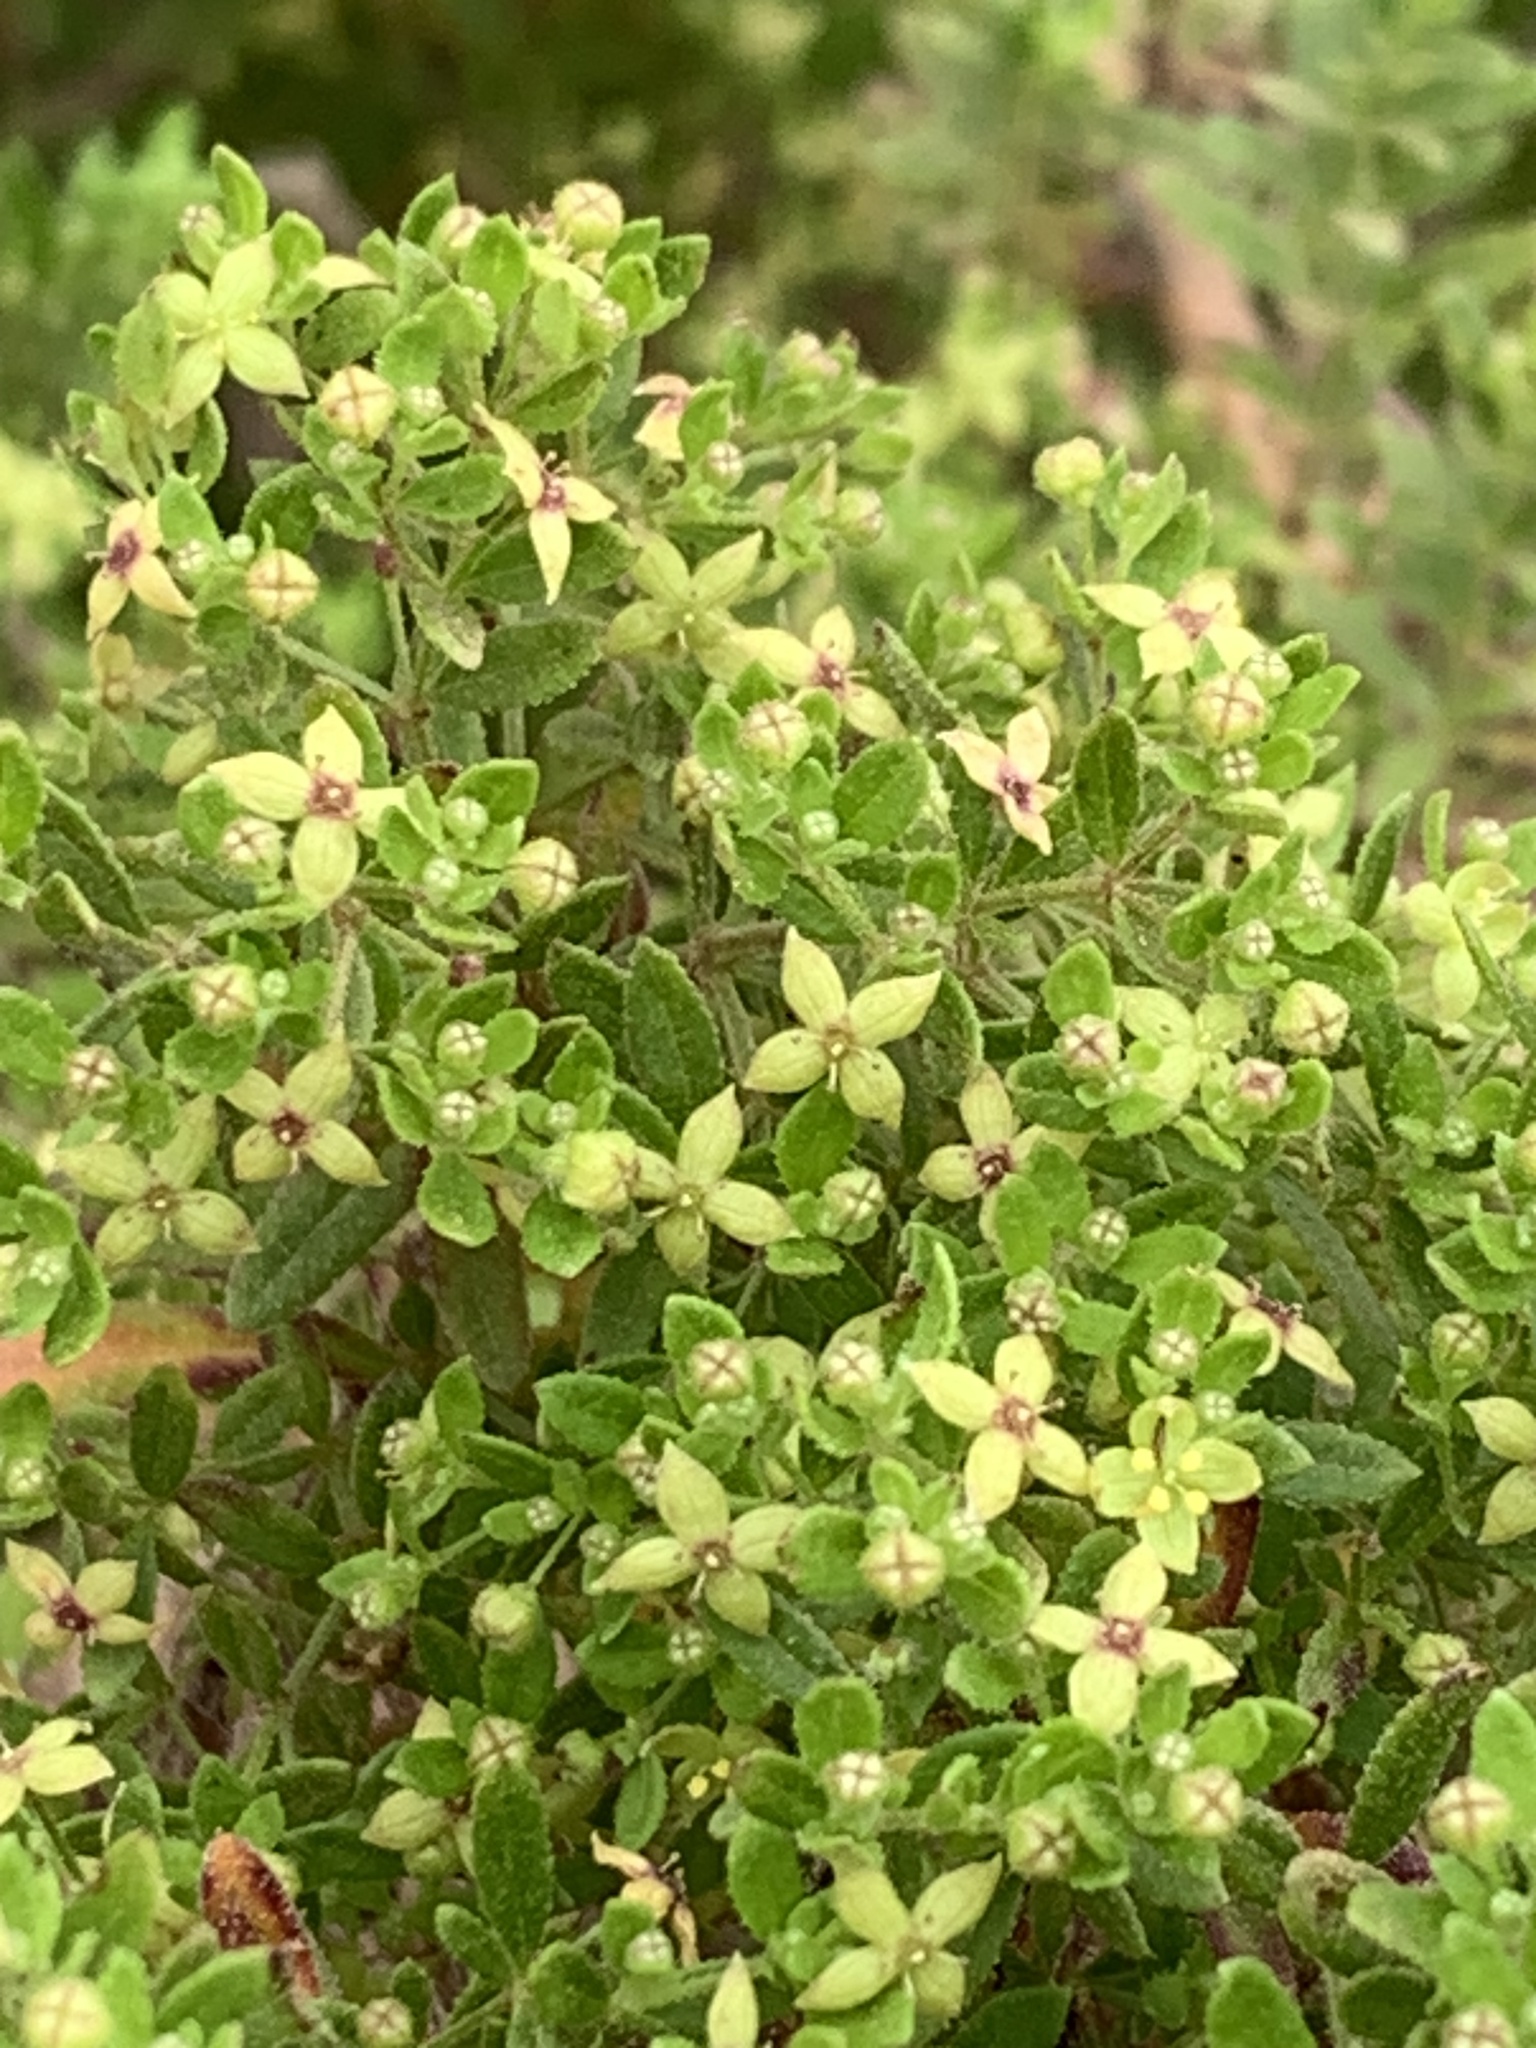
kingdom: Plantae
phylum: Tracheophyta
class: Magnoliopsida
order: Gentianales
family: Rubiaceae
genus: Galium
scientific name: Galium catalinense
